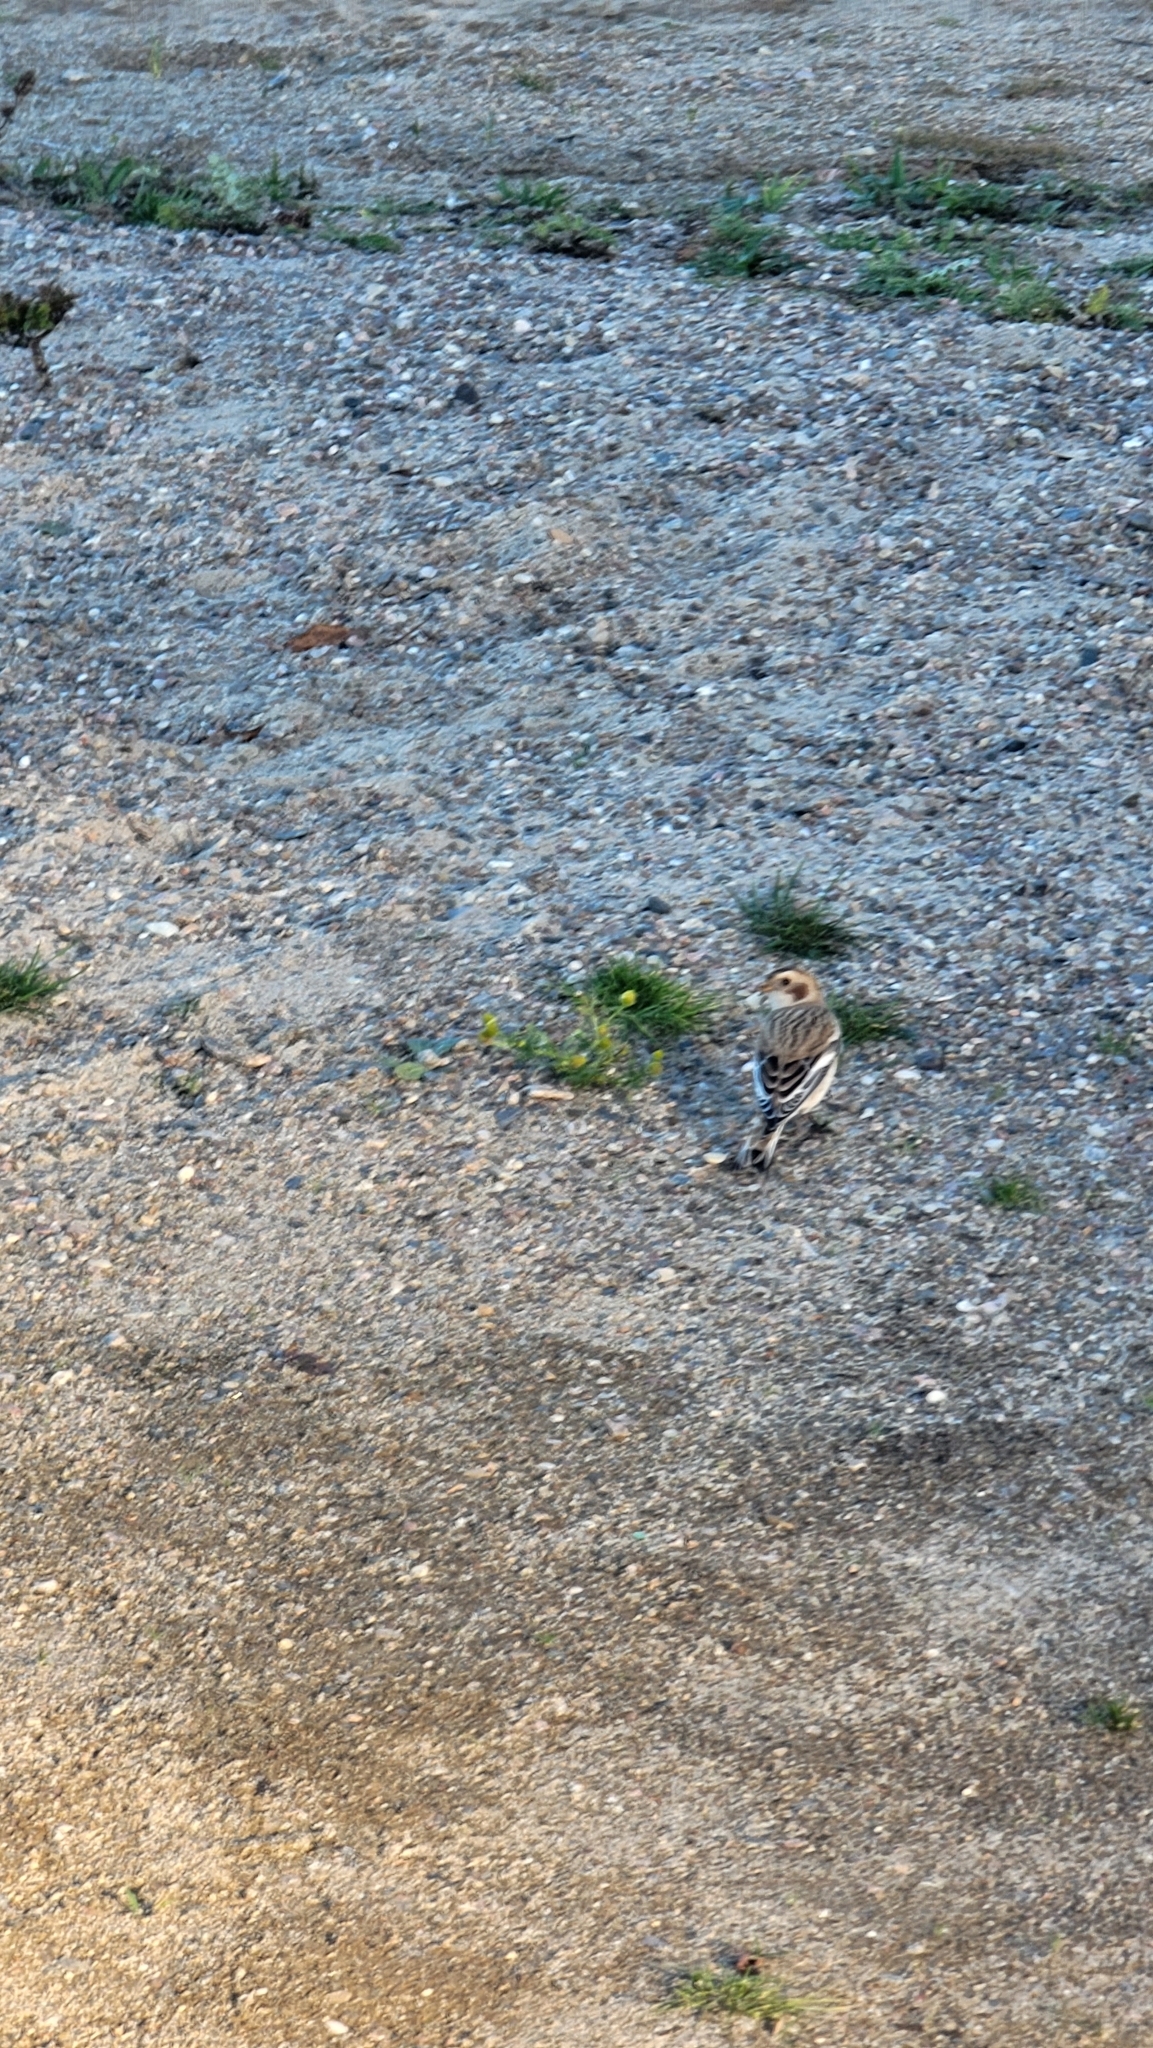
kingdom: Animalia
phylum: Chordata
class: Aves
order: Passeriformes
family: Calcariidae
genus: Plectrophenax
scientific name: Plectrophenax nivalis
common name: Snow bunting
